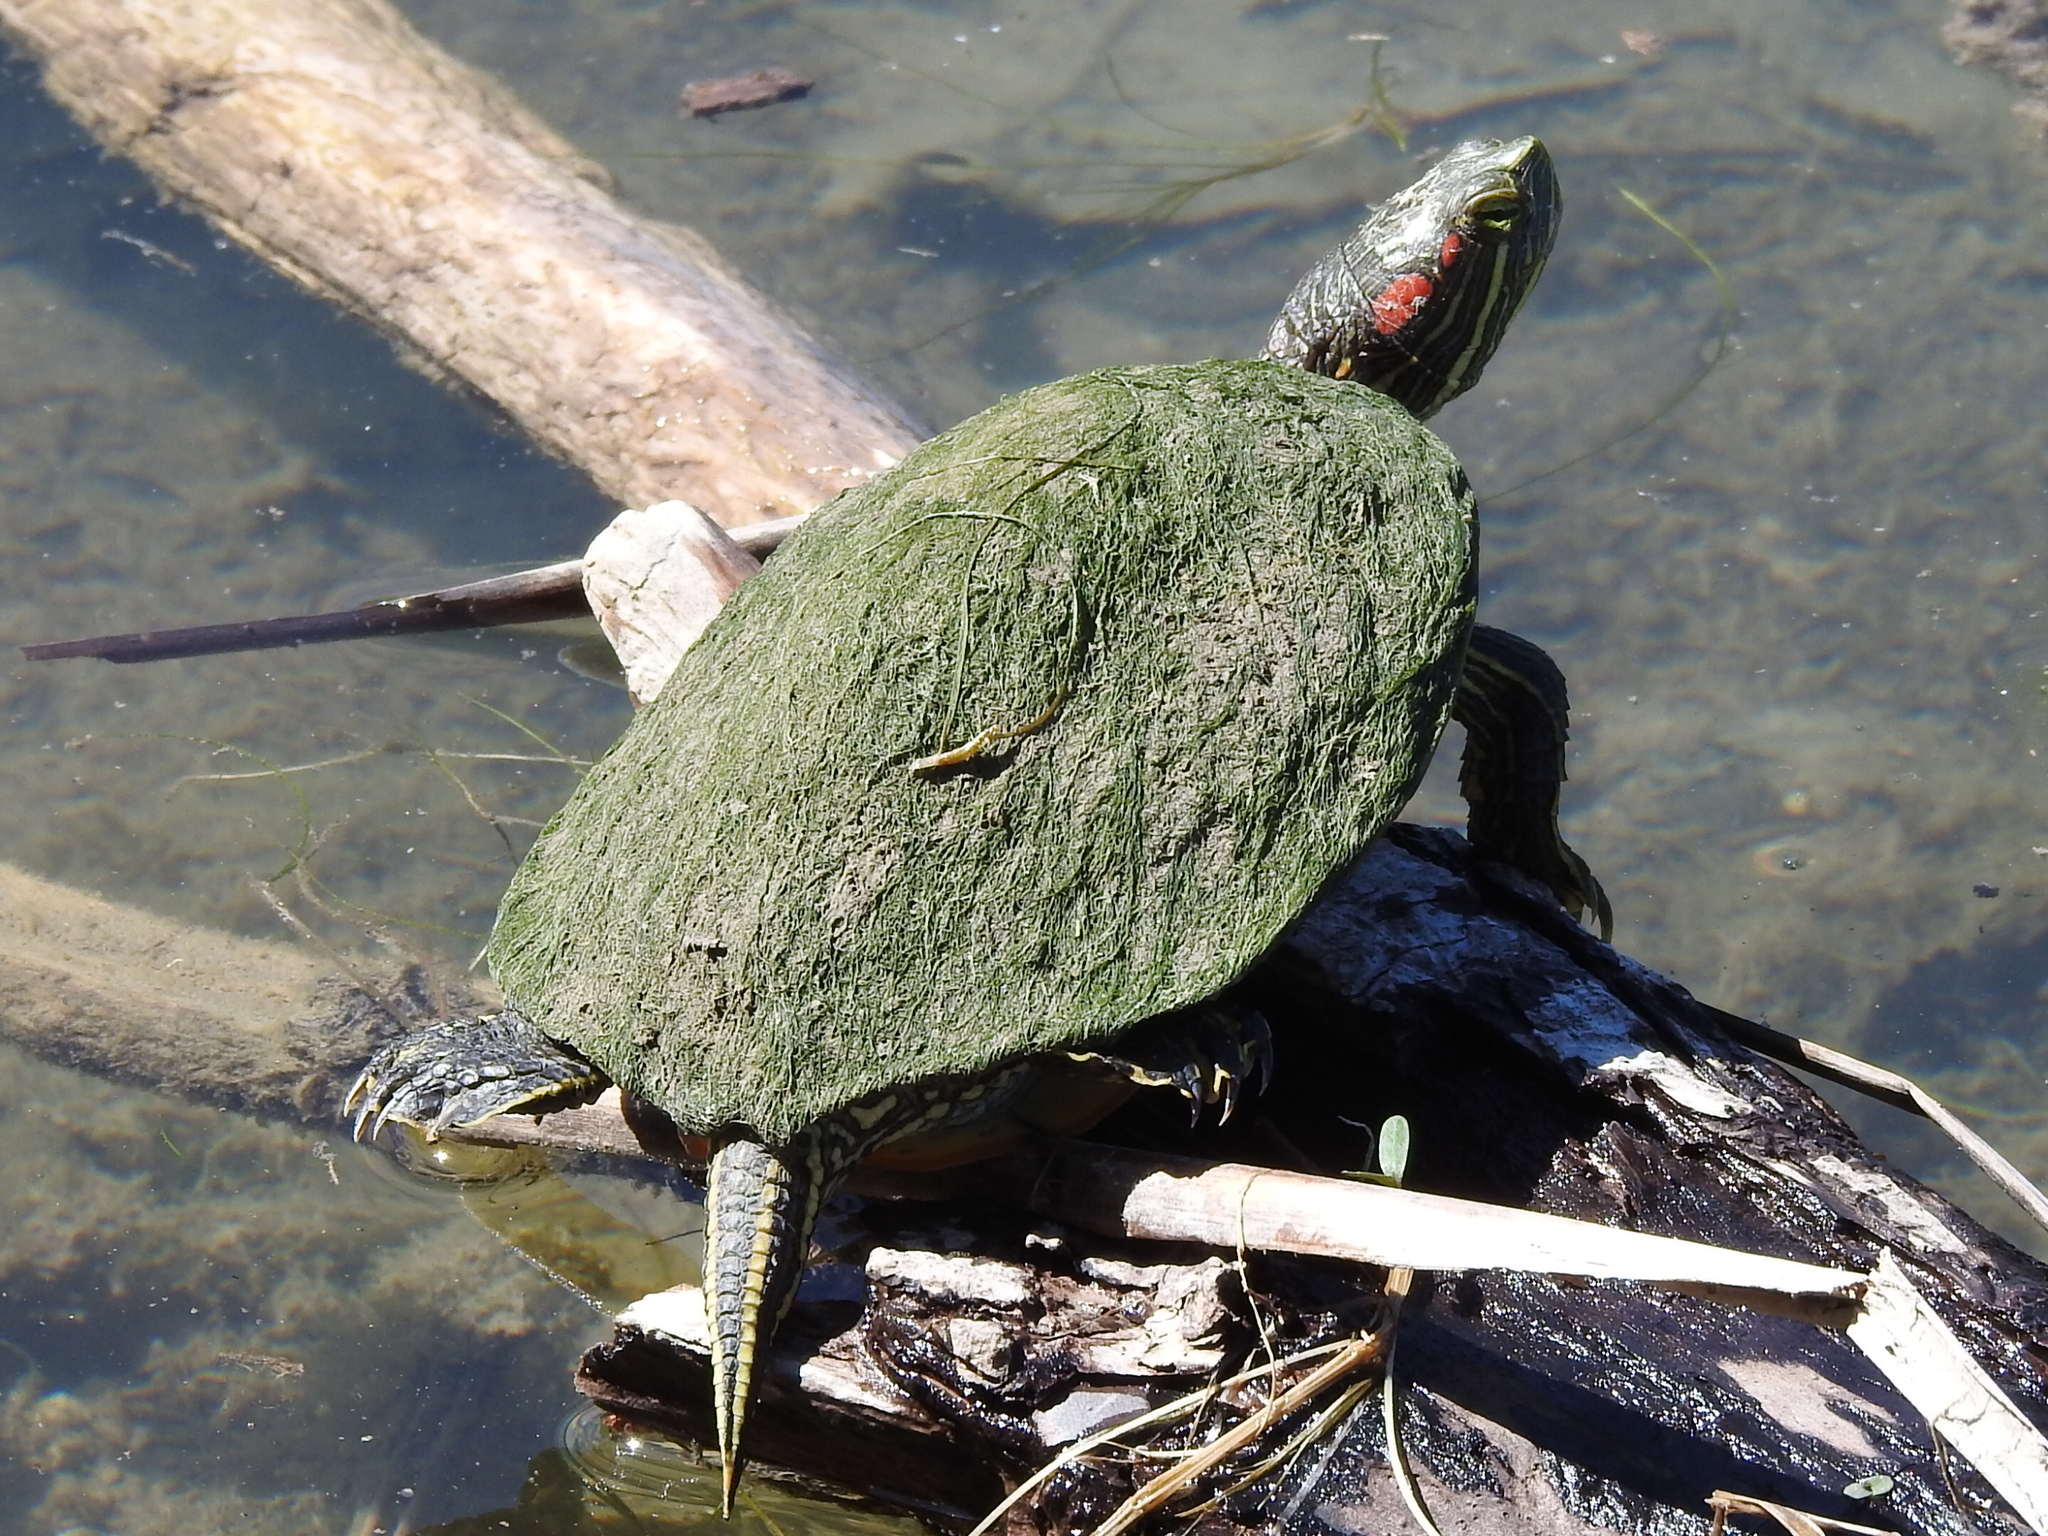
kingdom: Animalia
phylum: Chordata
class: Testudines
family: Emydidae
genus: Trachemys
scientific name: Trachemys scripta
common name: Slider
